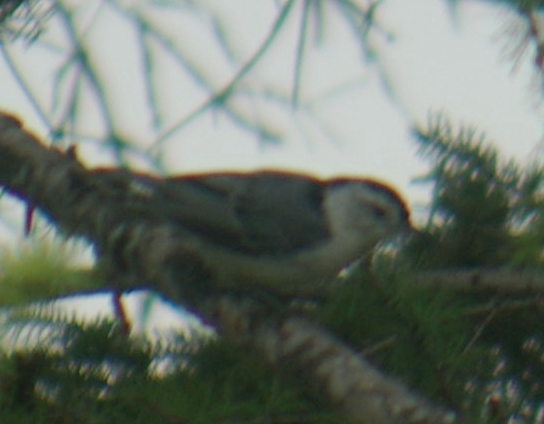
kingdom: Animalia
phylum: Chordata
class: Aves
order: Passeriformes
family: Sittidae
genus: Sitta
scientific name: Sitta carolinensis
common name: White-breasted nuthatch
